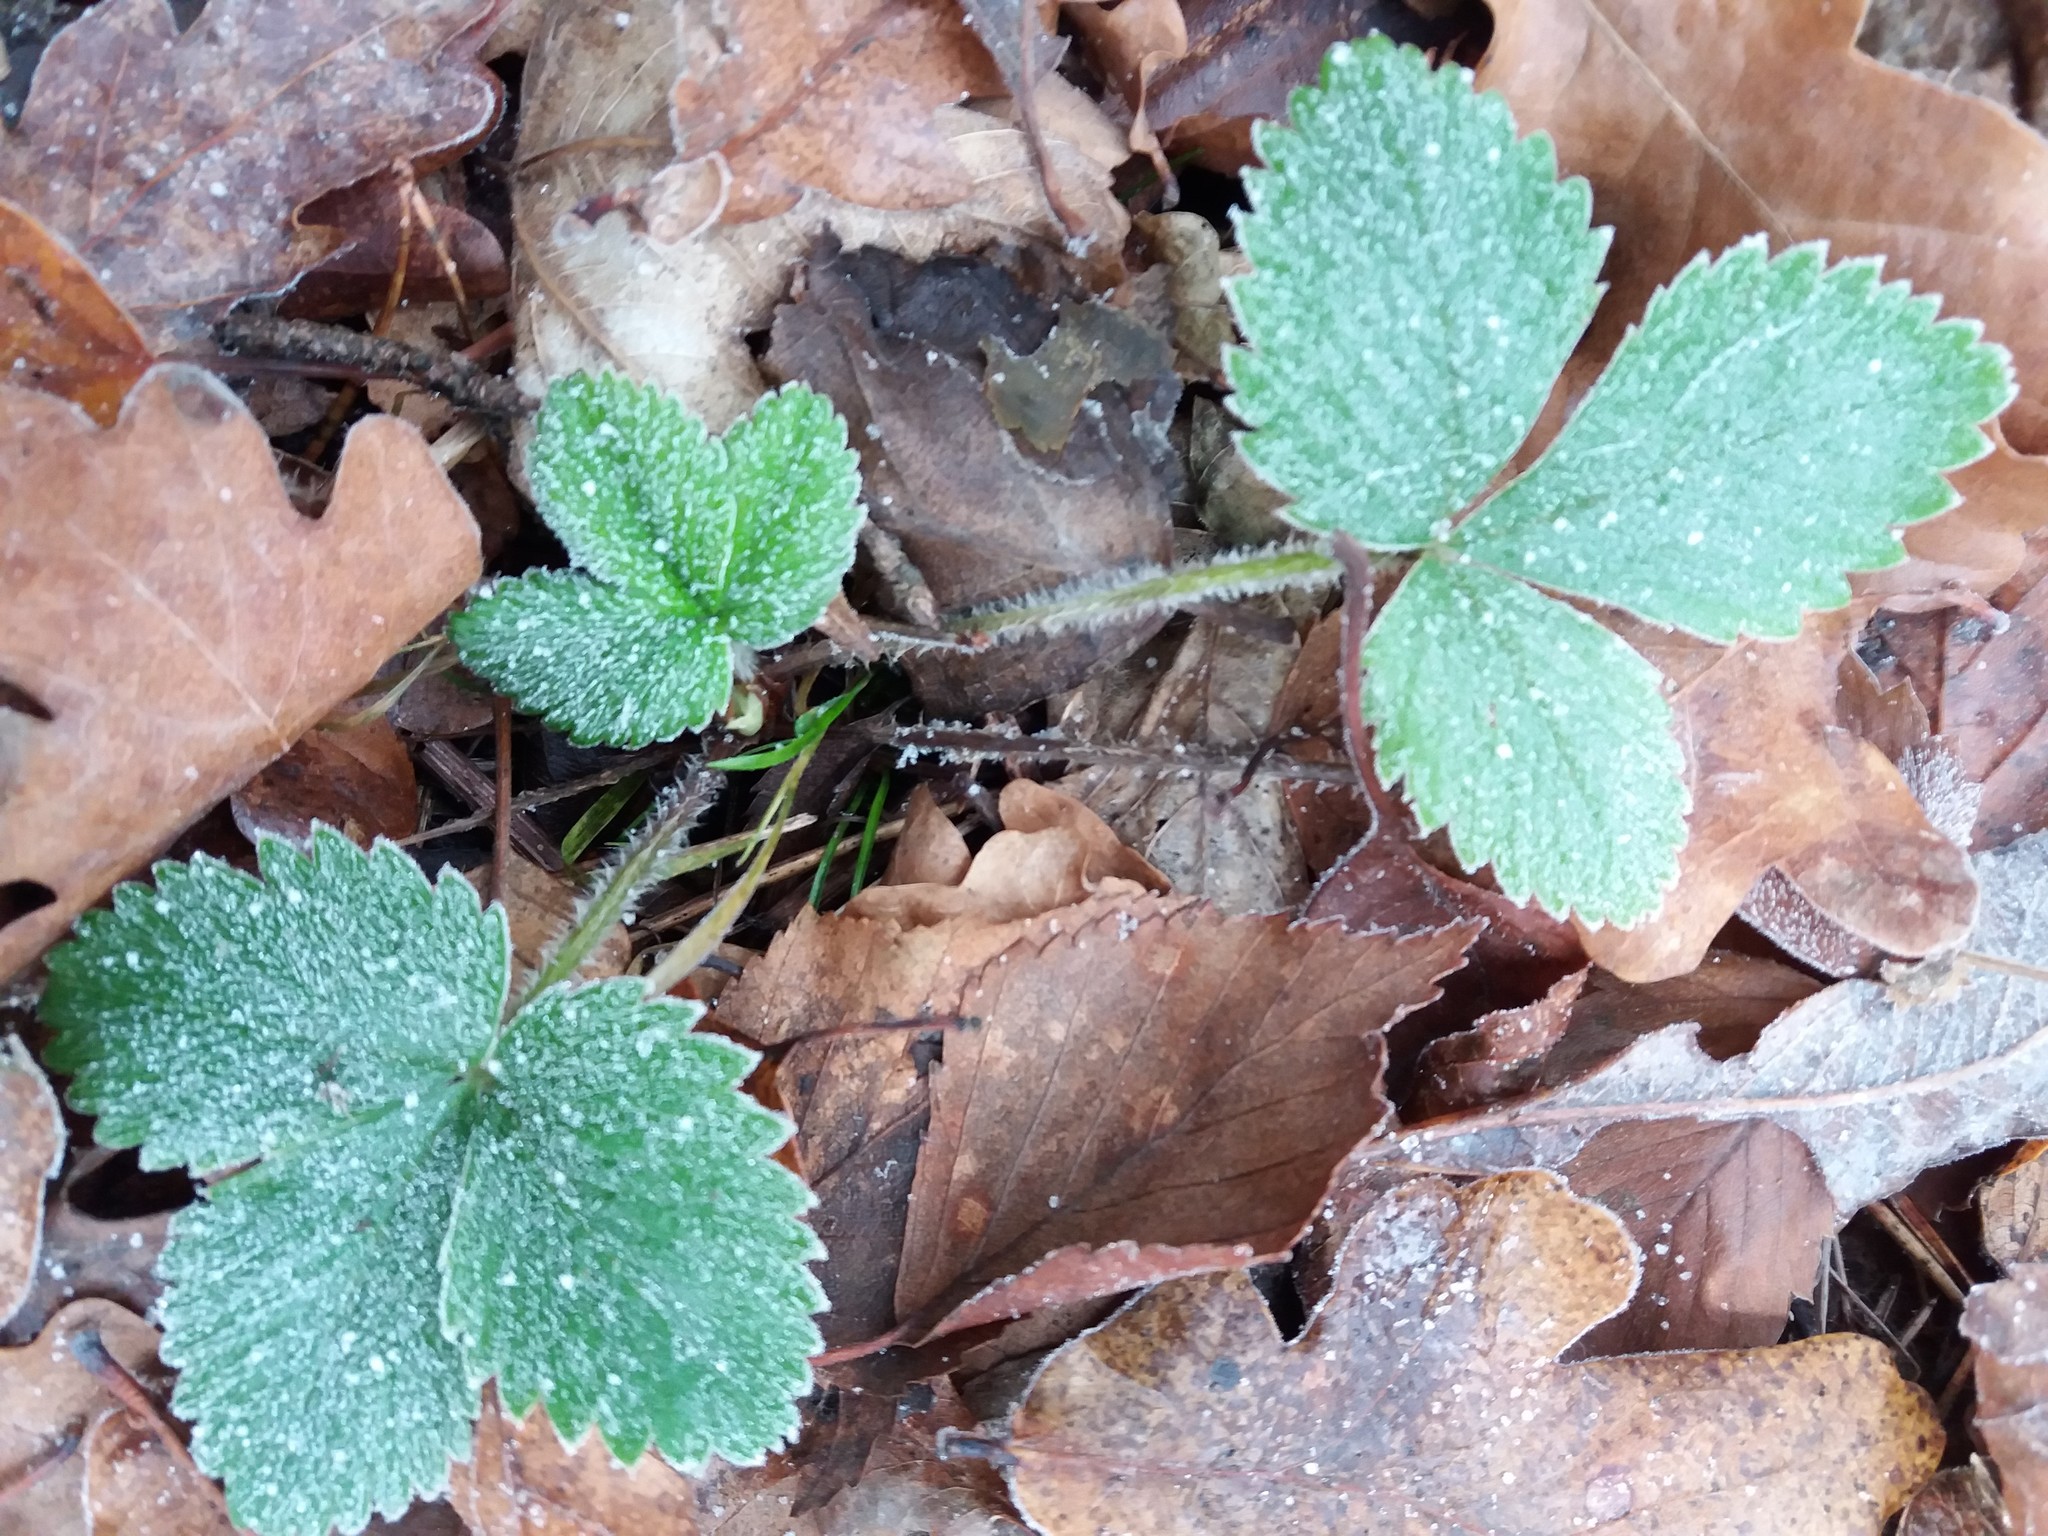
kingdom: Plantae
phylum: Tracheophyta
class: Magnoliopsida
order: Rosales
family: Rosaceae
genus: Fragaria
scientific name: Fragaria vesca
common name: Wild strawberry
